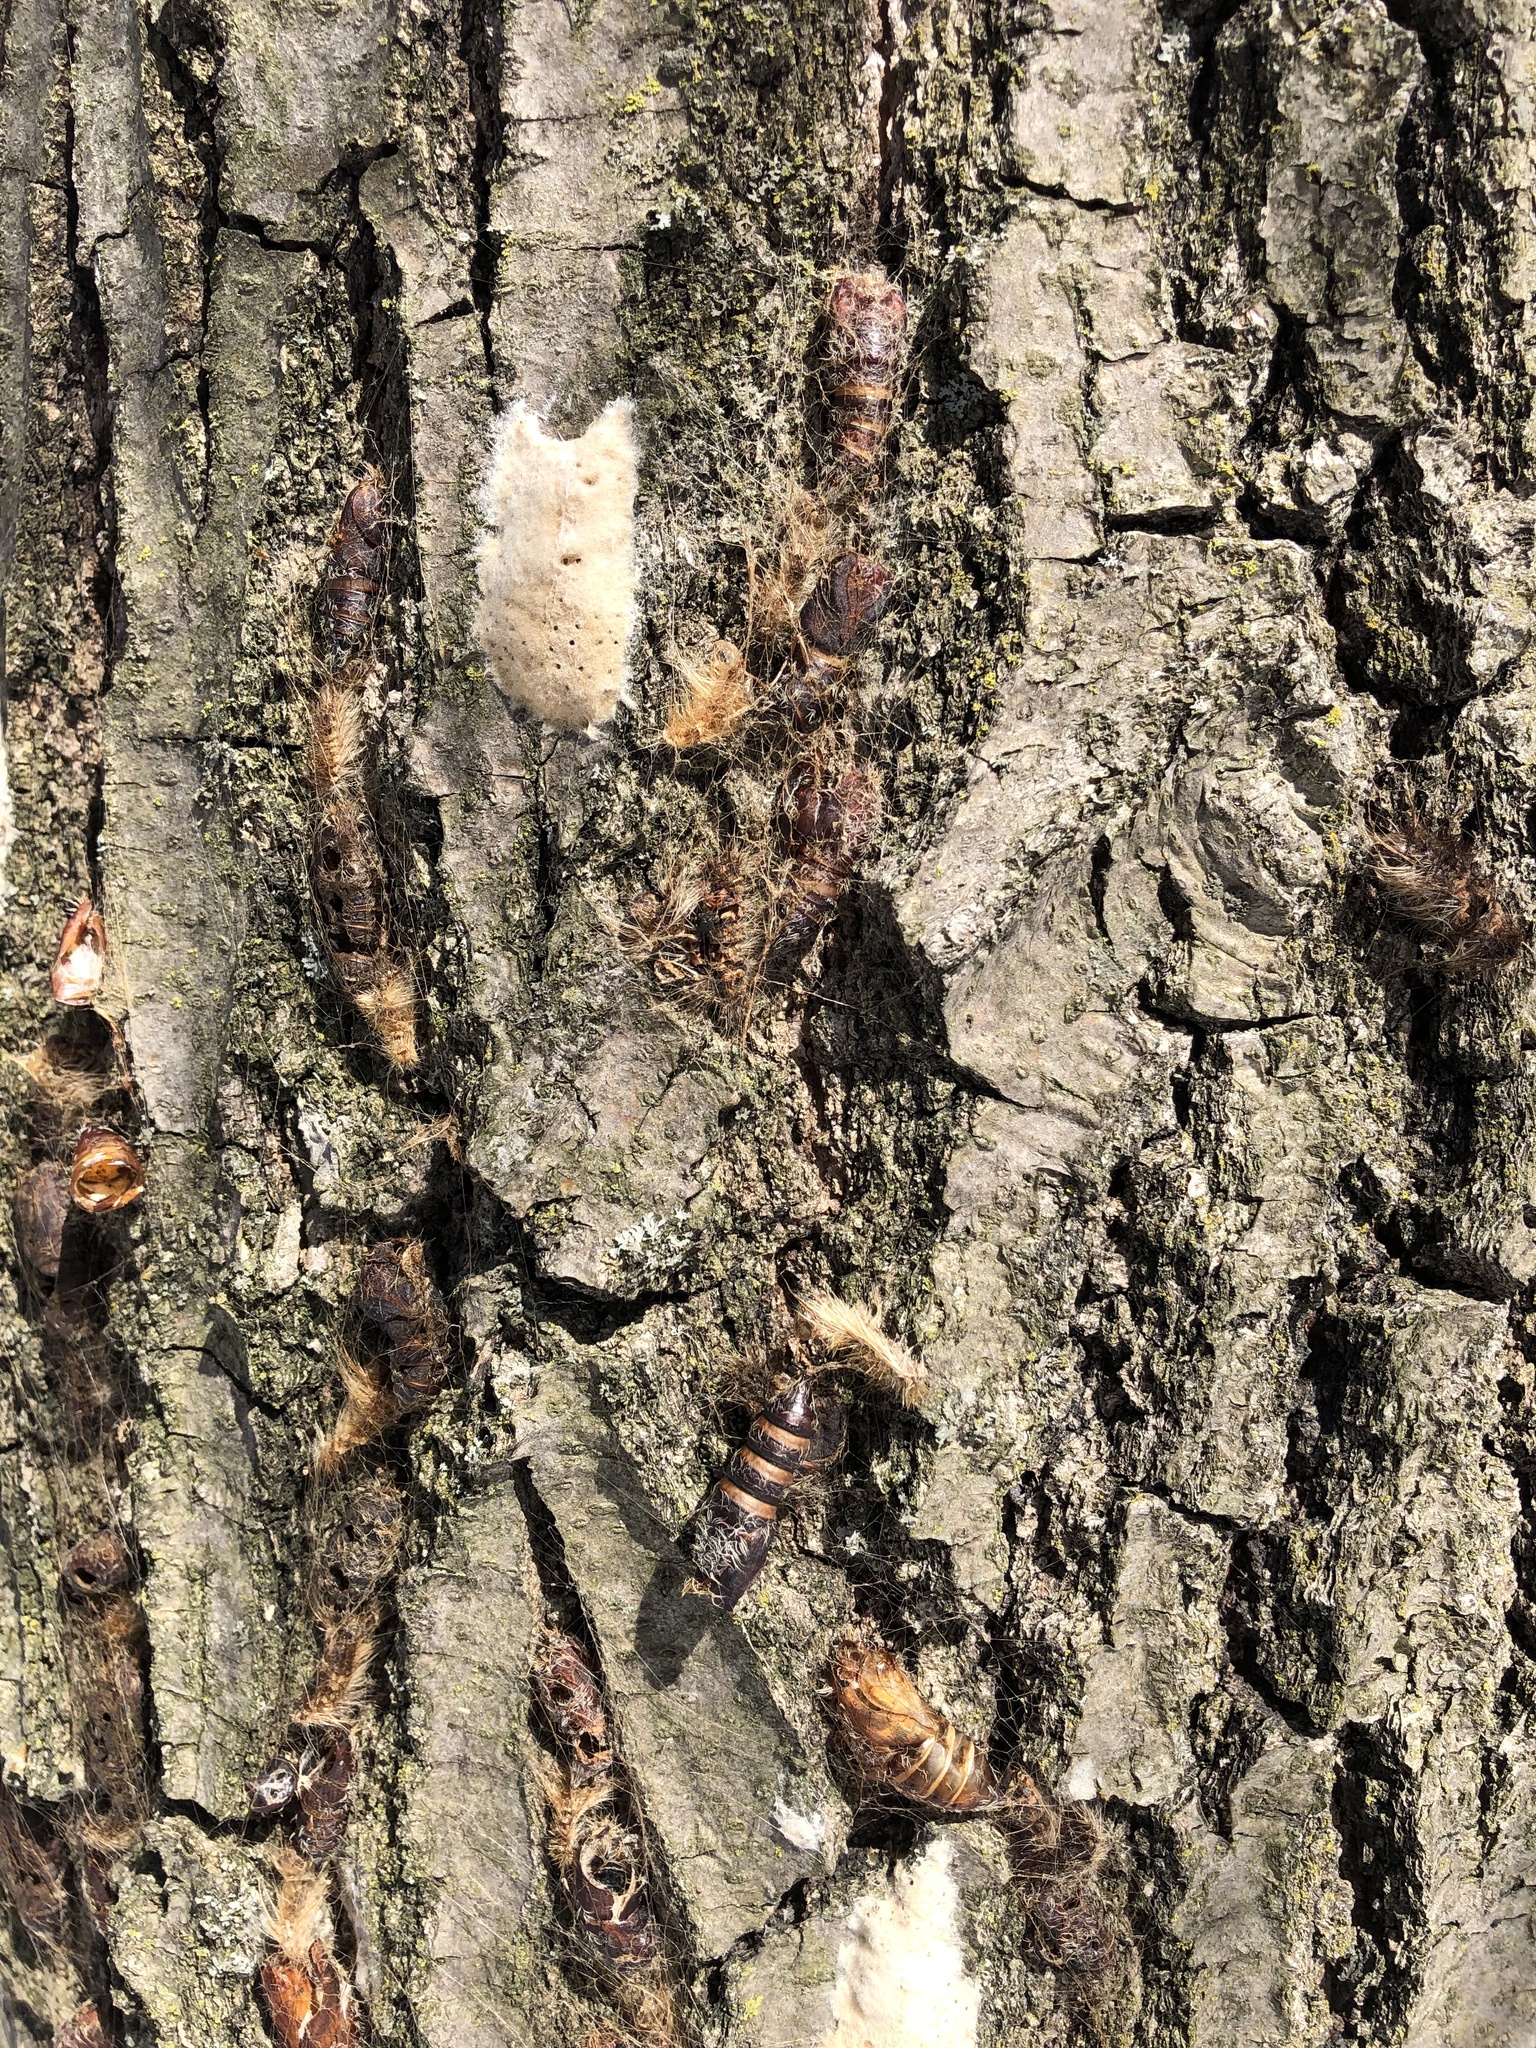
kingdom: Animalia
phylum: Arthropoda
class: Insecta
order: Lepidoptera
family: Erebidae
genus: Lymantria
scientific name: Lymantria dispar
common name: Gypsy moth
